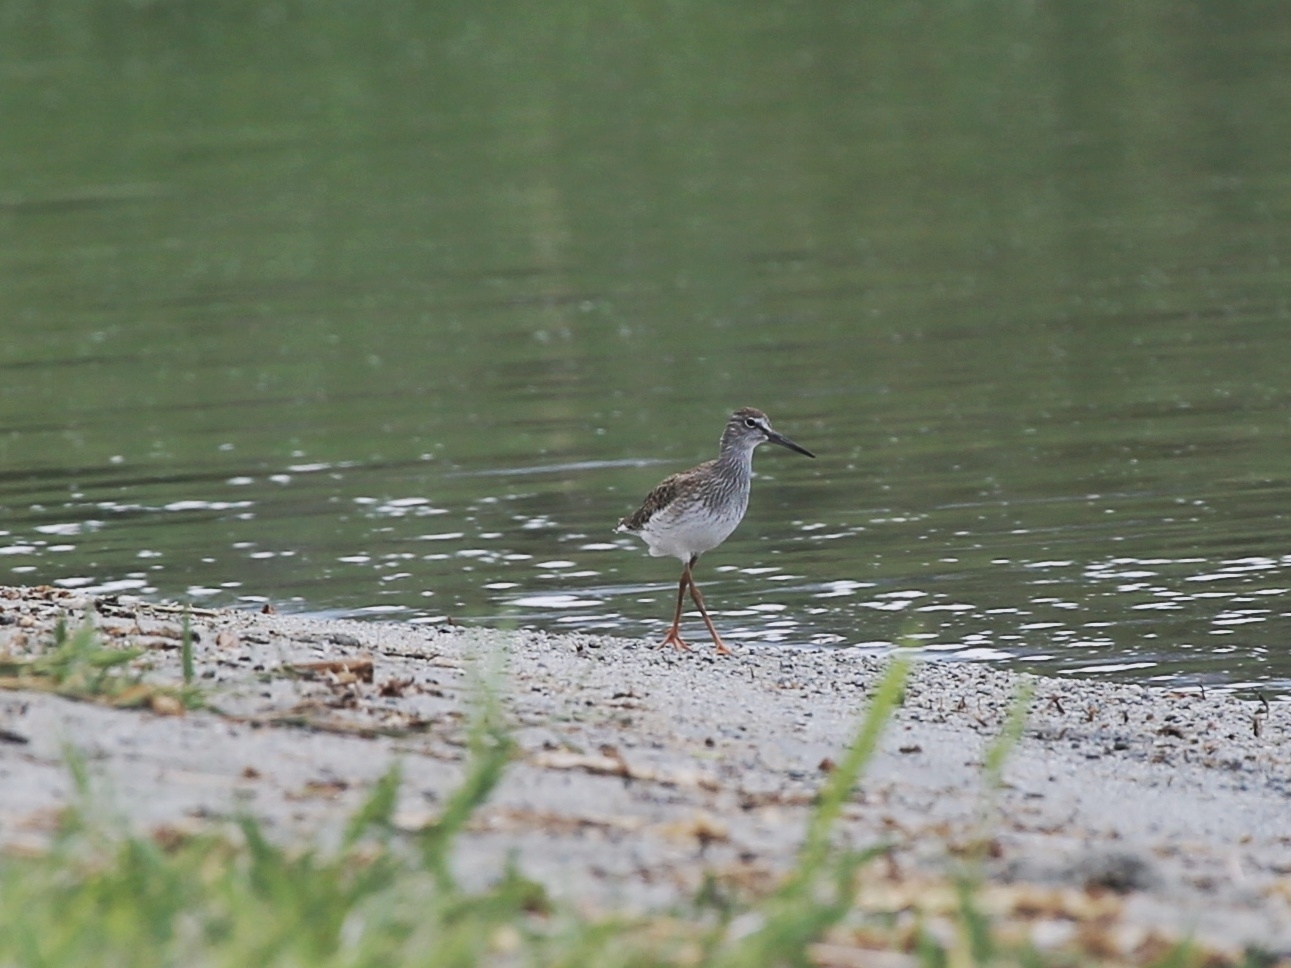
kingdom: Animalia
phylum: Chordata
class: Aves
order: Charadriiformes
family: Scolopacidae
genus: Tringa
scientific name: Tringa totanus
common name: Common redshank
